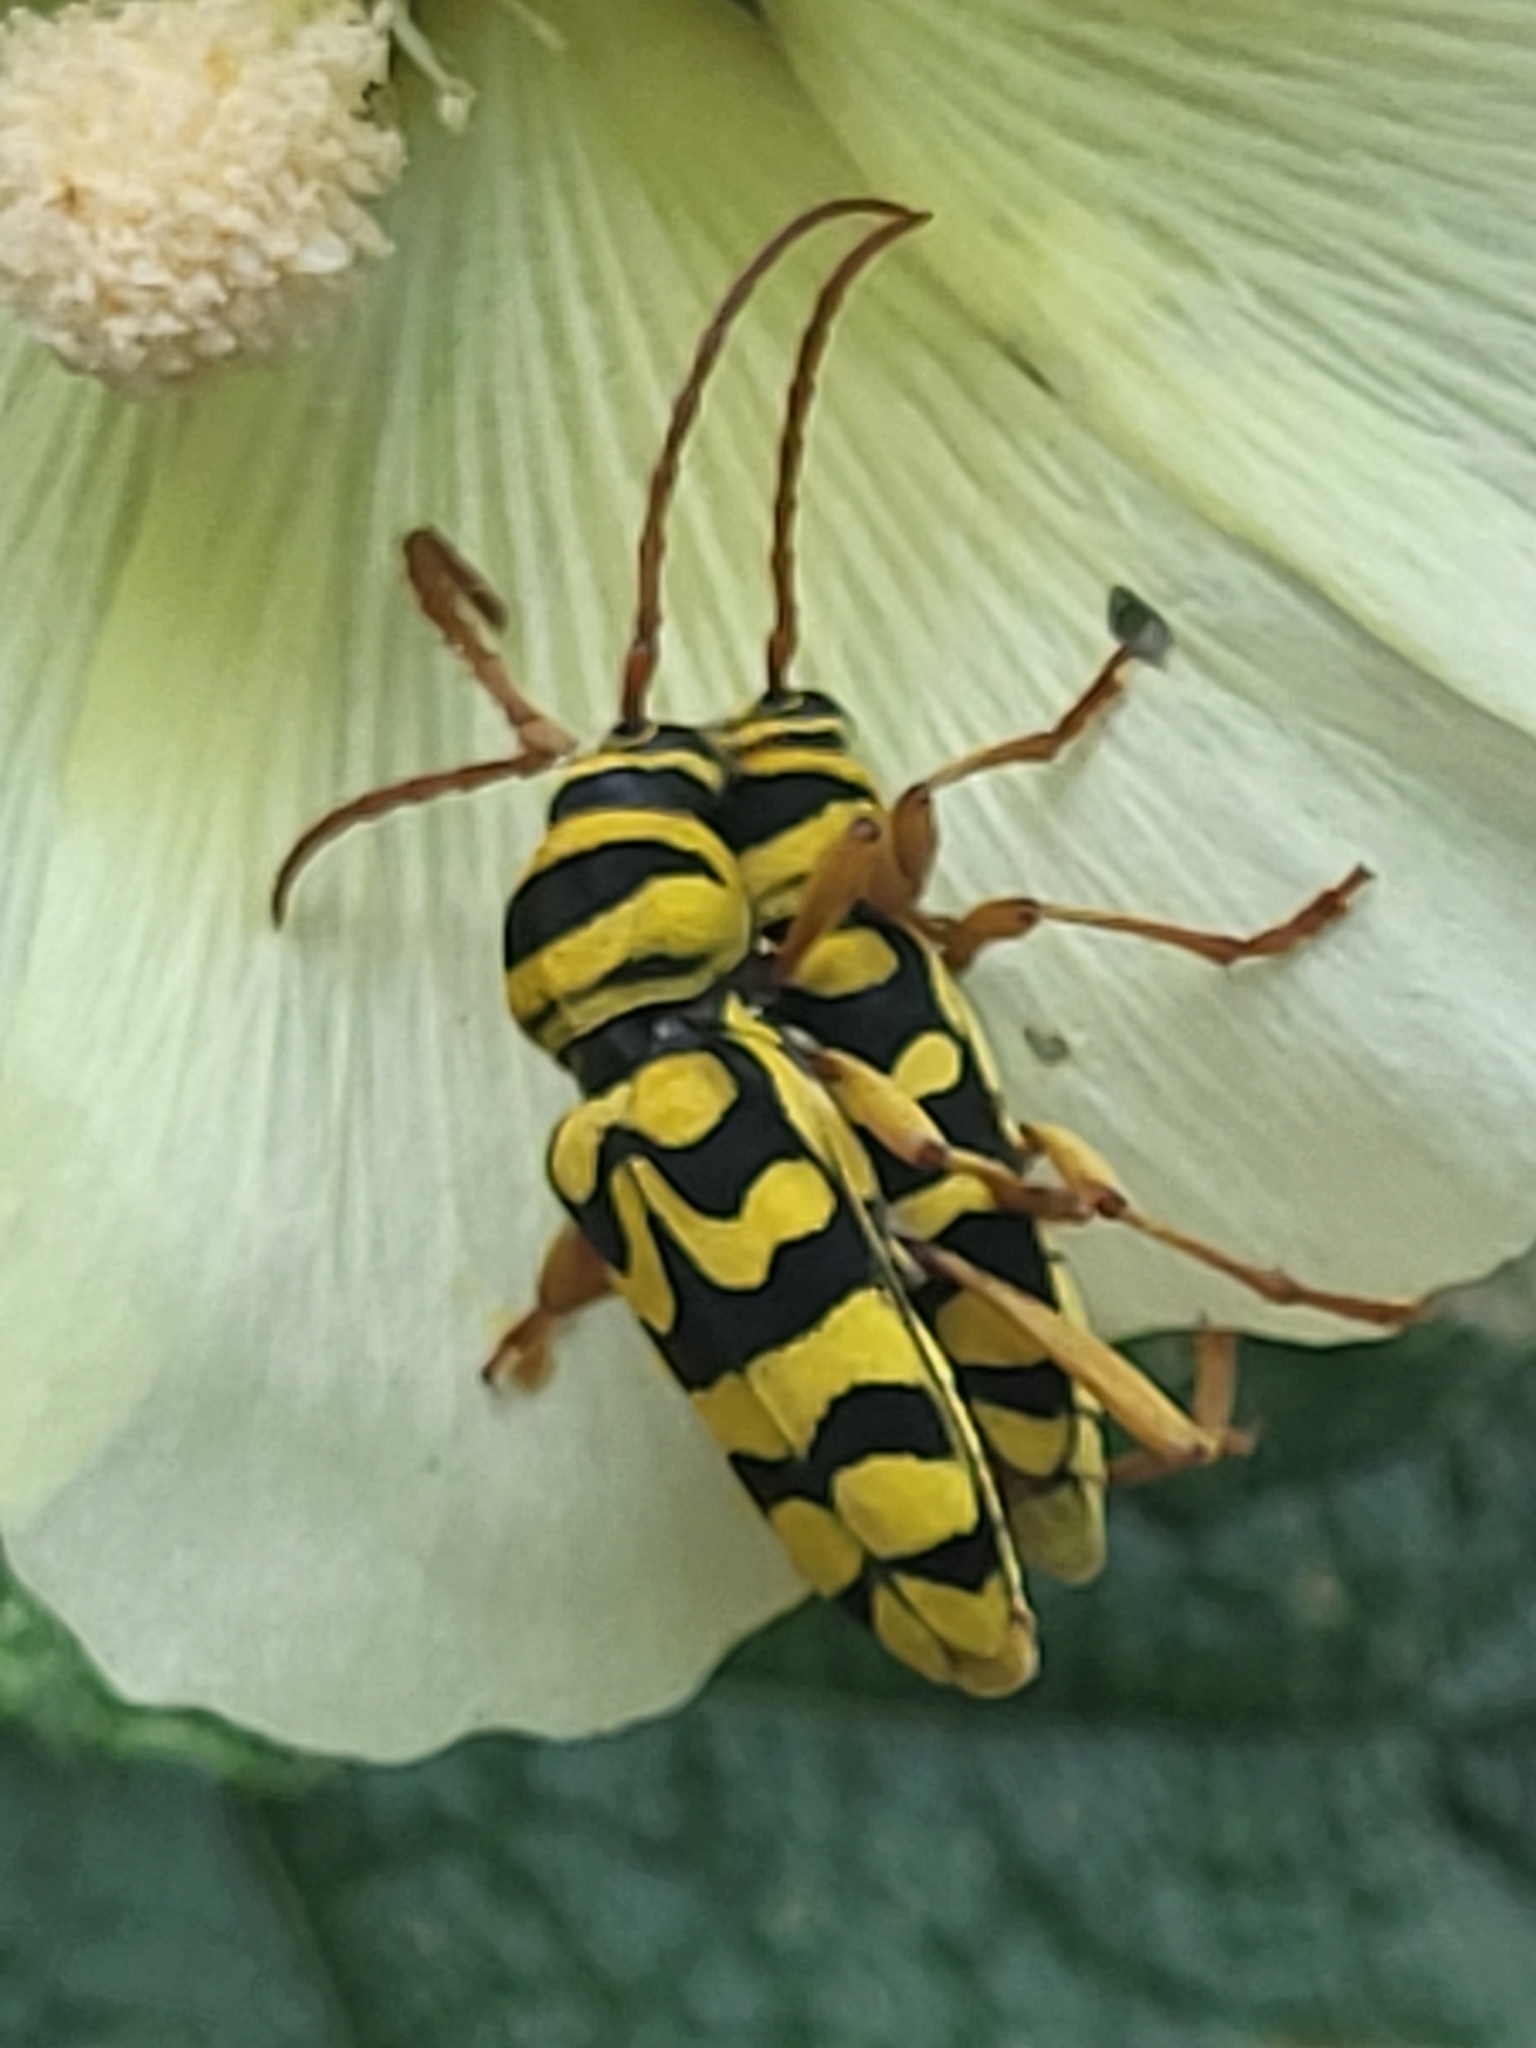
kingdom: Animalia
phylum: Arthropoda
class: Insecta
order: Coleoptera
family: Cerambycidae
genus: Neoplagionotus
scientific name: Neoplagionotus bobelayei
